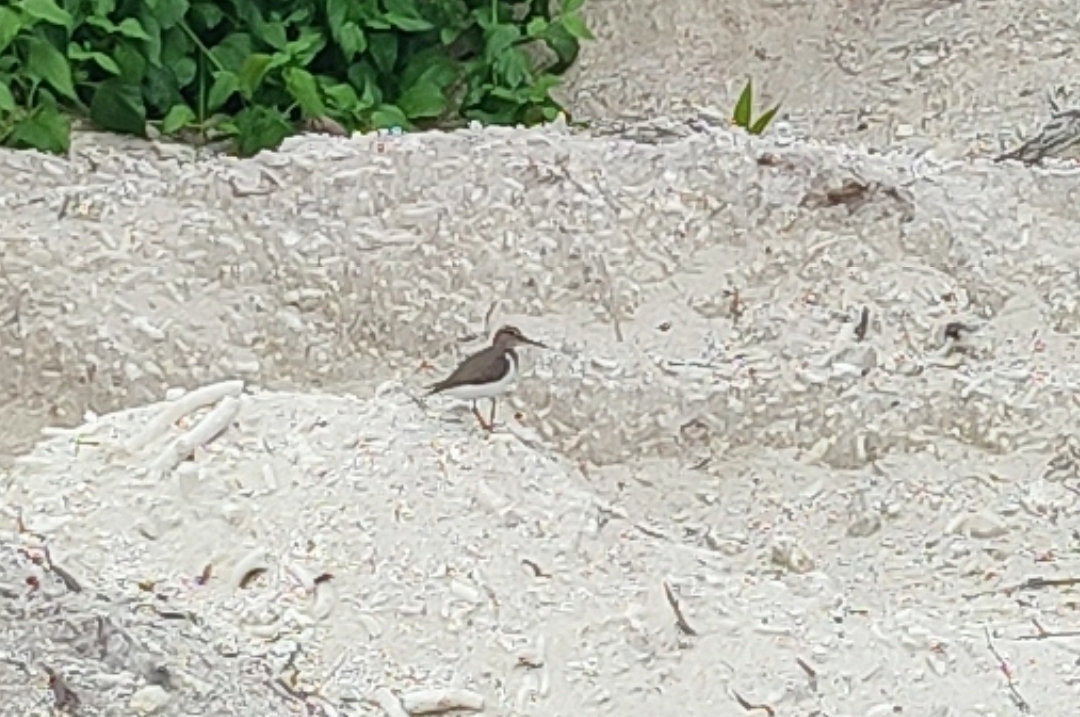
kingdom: Animalia
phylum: Chordata
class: Aves
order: Charadriiformes
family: Scolopacidae
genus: Actitis
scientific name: Actitis hypoleucos
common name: Common sandpiper
